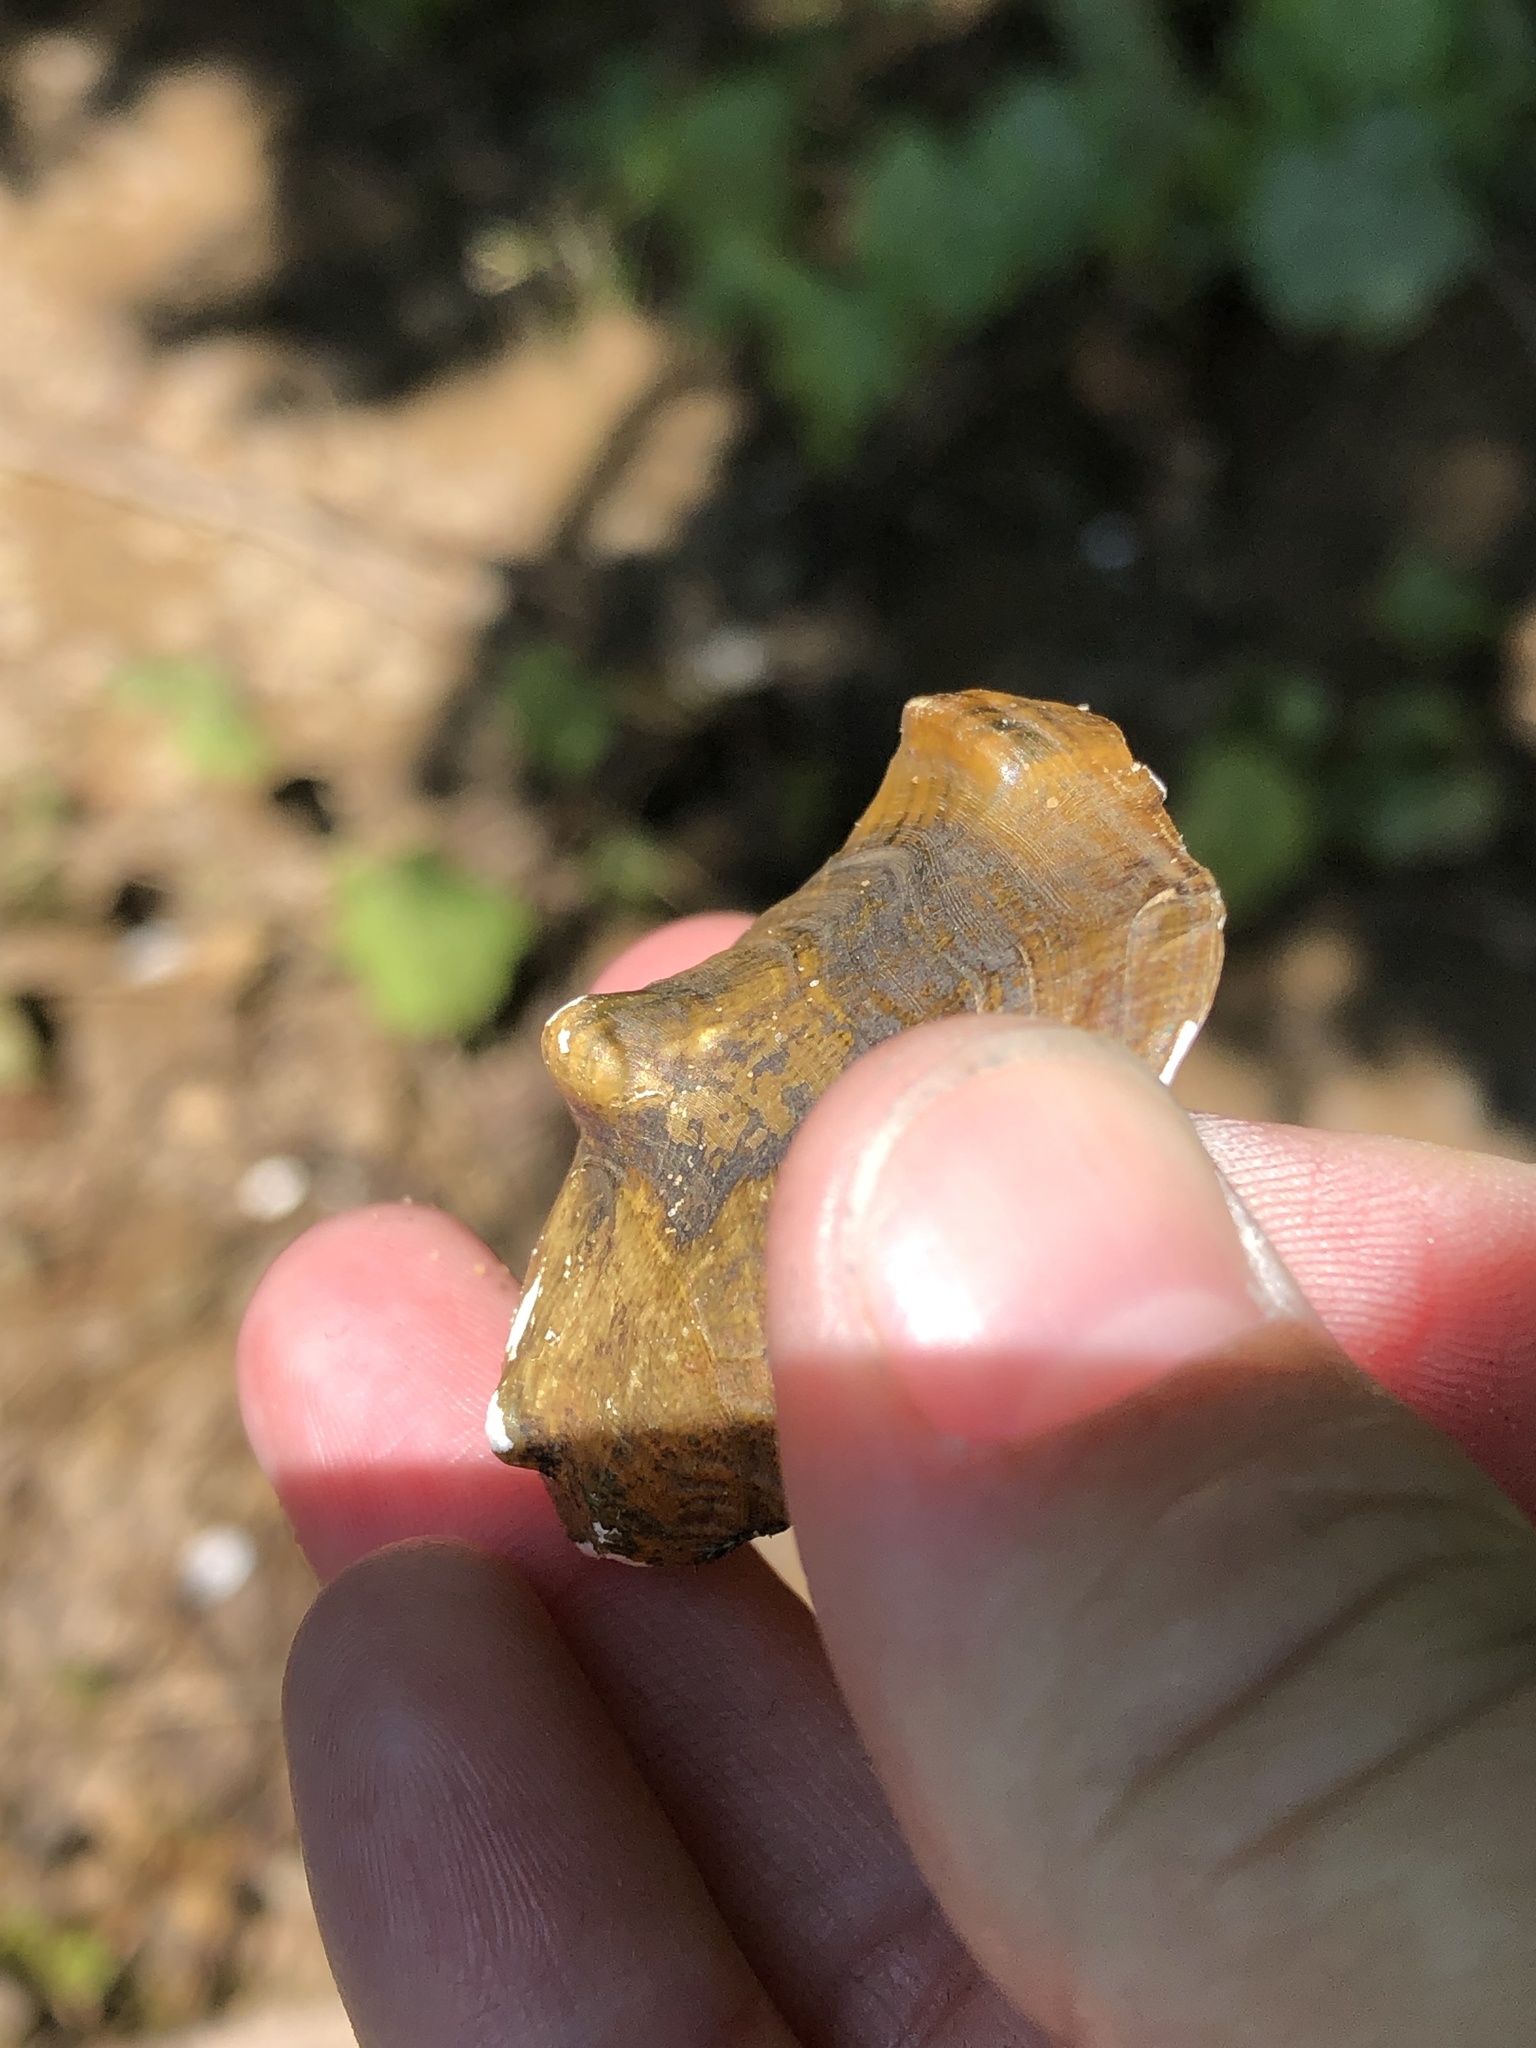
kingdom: Animalia
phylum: Mollusca
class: Bivalvia
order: Unionida
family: Unionidae
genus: Obliquaria
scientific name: Obliquaria reflexa
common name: Threehorn wartyback
